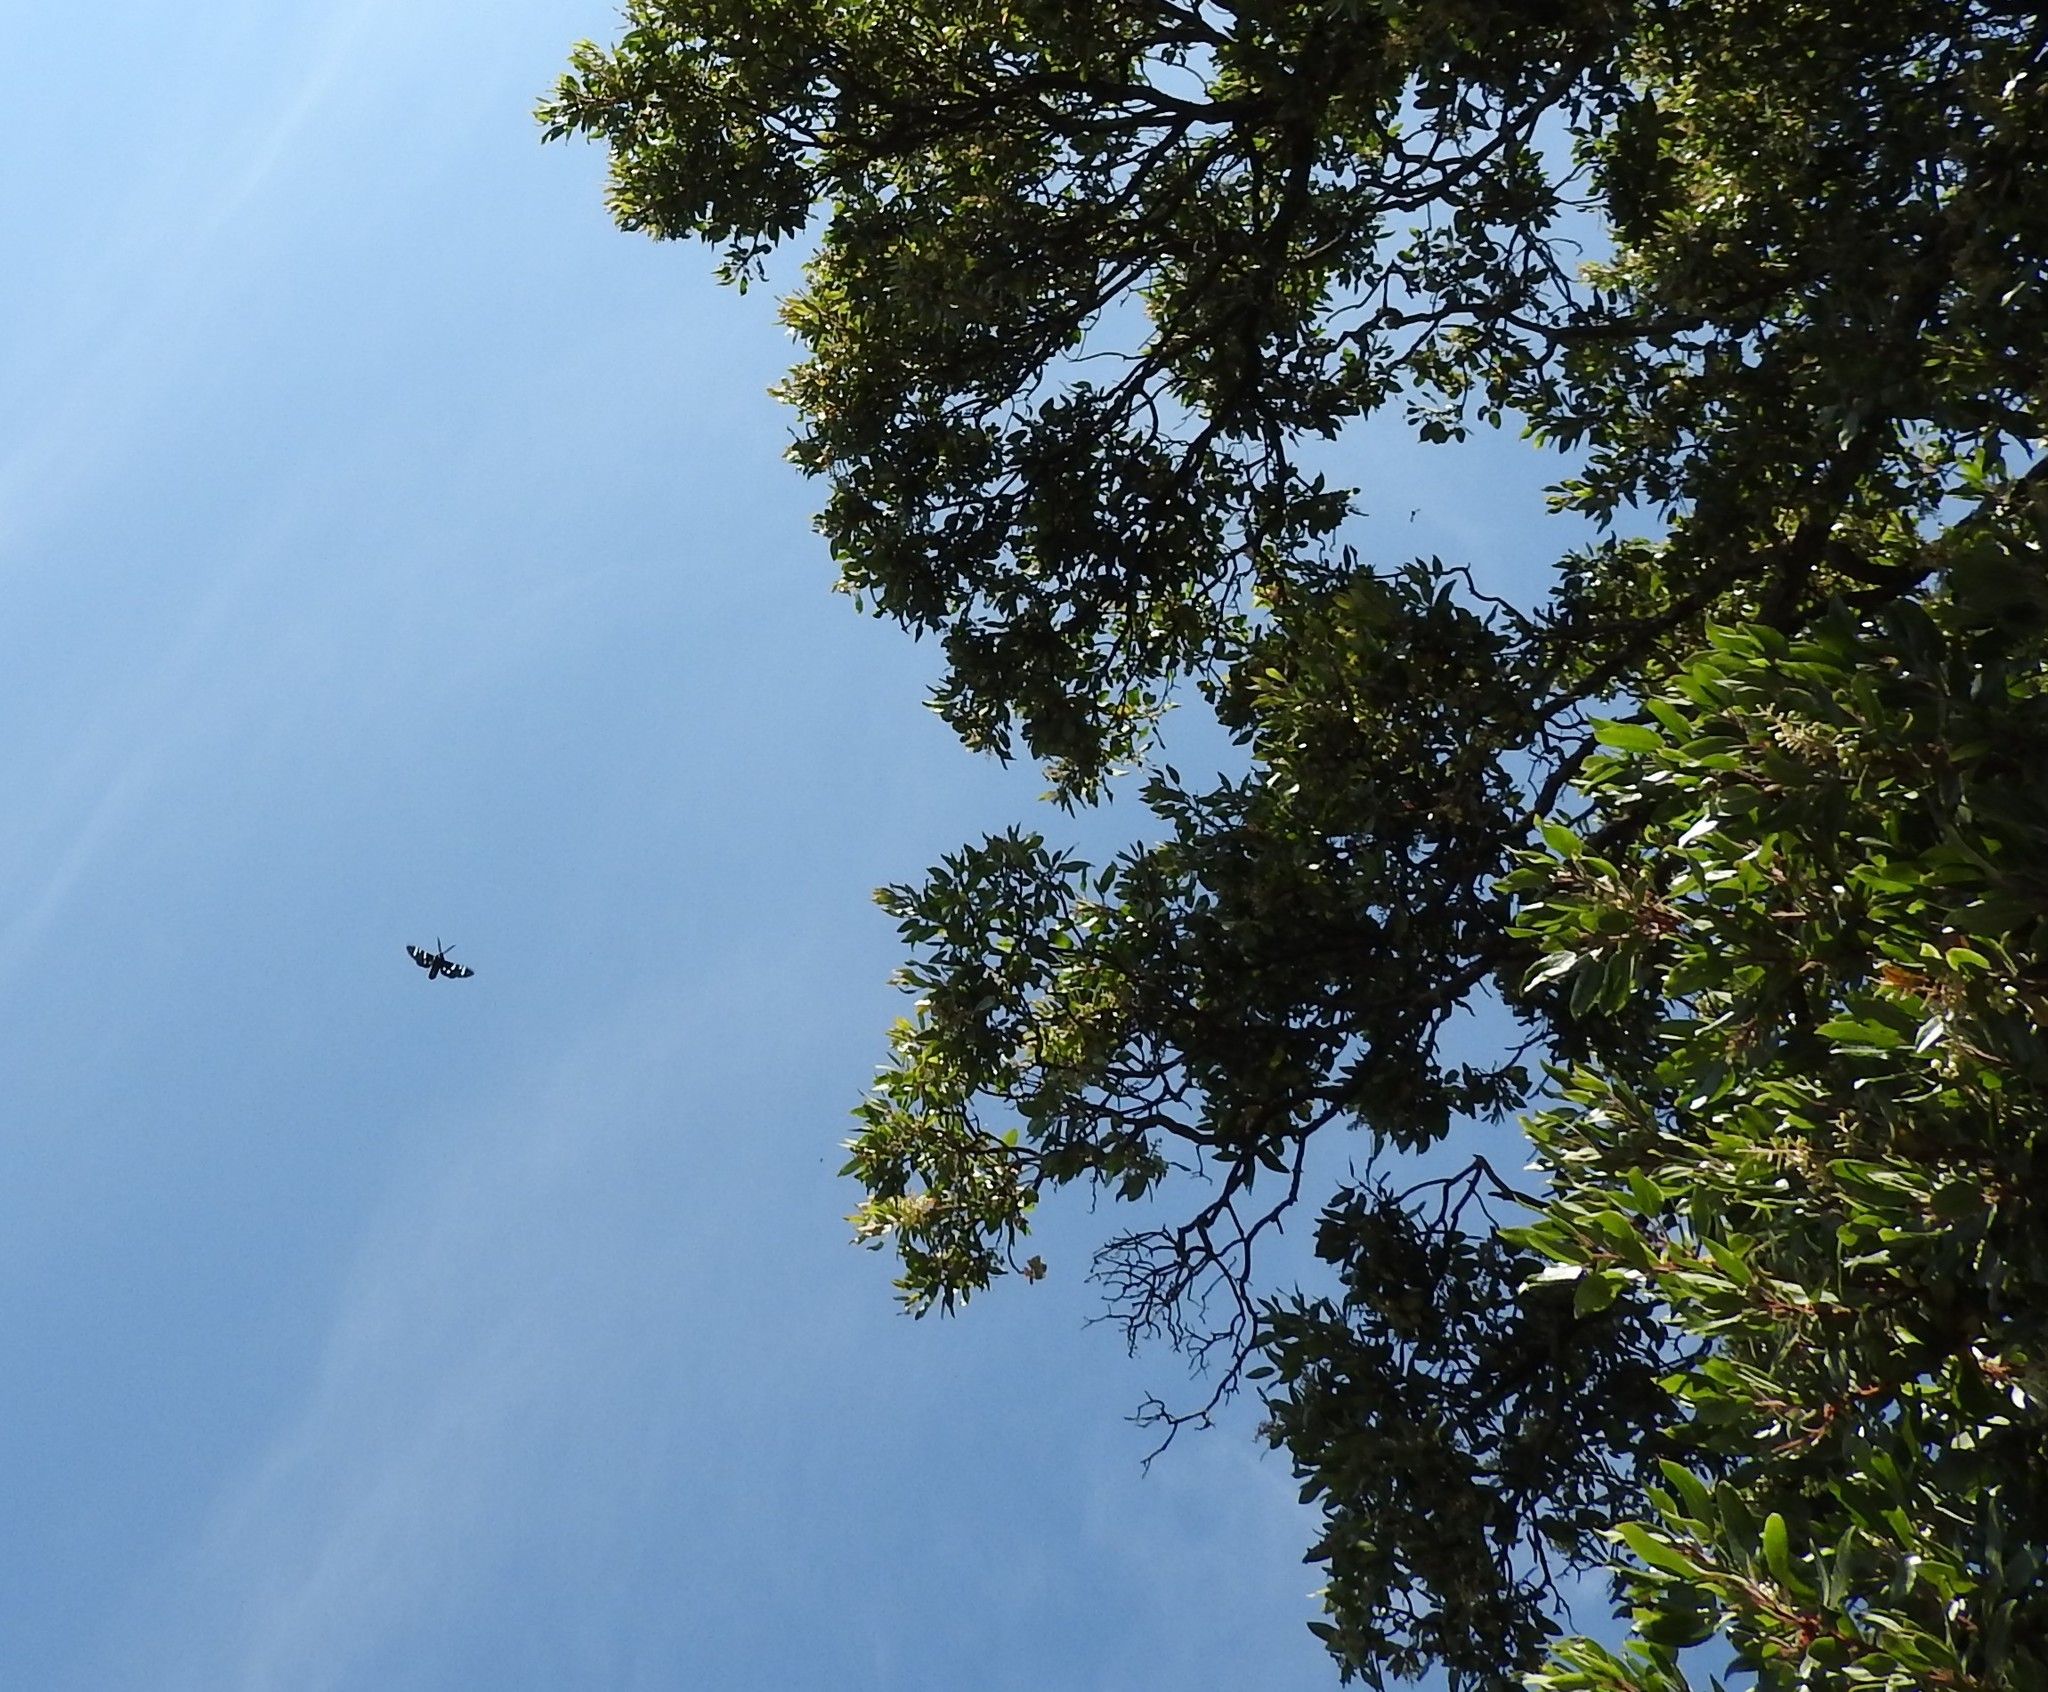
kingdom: Animalia
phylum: Arthropoda
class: Insecta
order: Lepidoptera
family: Erebidae
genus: Chrysocale
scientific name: Chrysocale principalis
